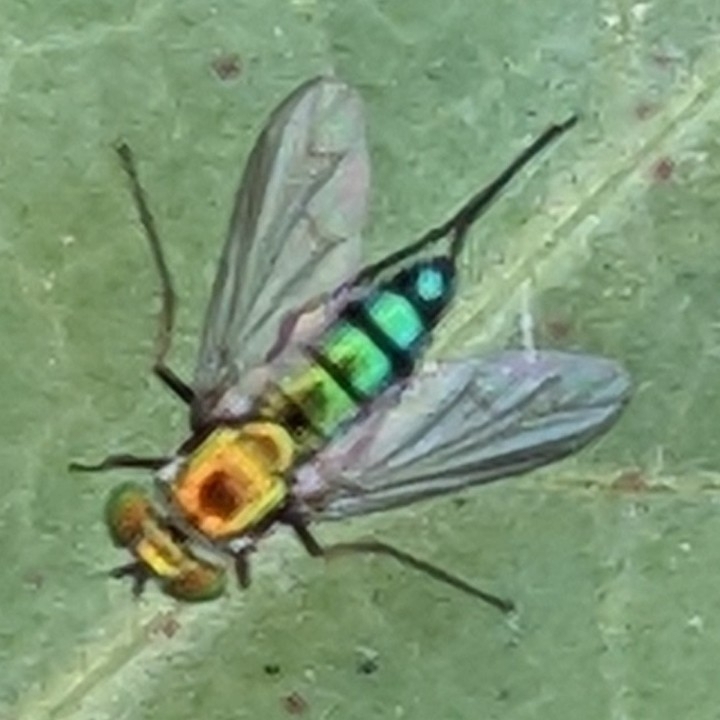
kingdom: Animalia
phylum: Arthropoda
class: Insecta
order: Diptera
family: Dolichopodidae
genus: Condylostylus
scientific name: Condylostylus longicornis
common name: Long-legged fly
